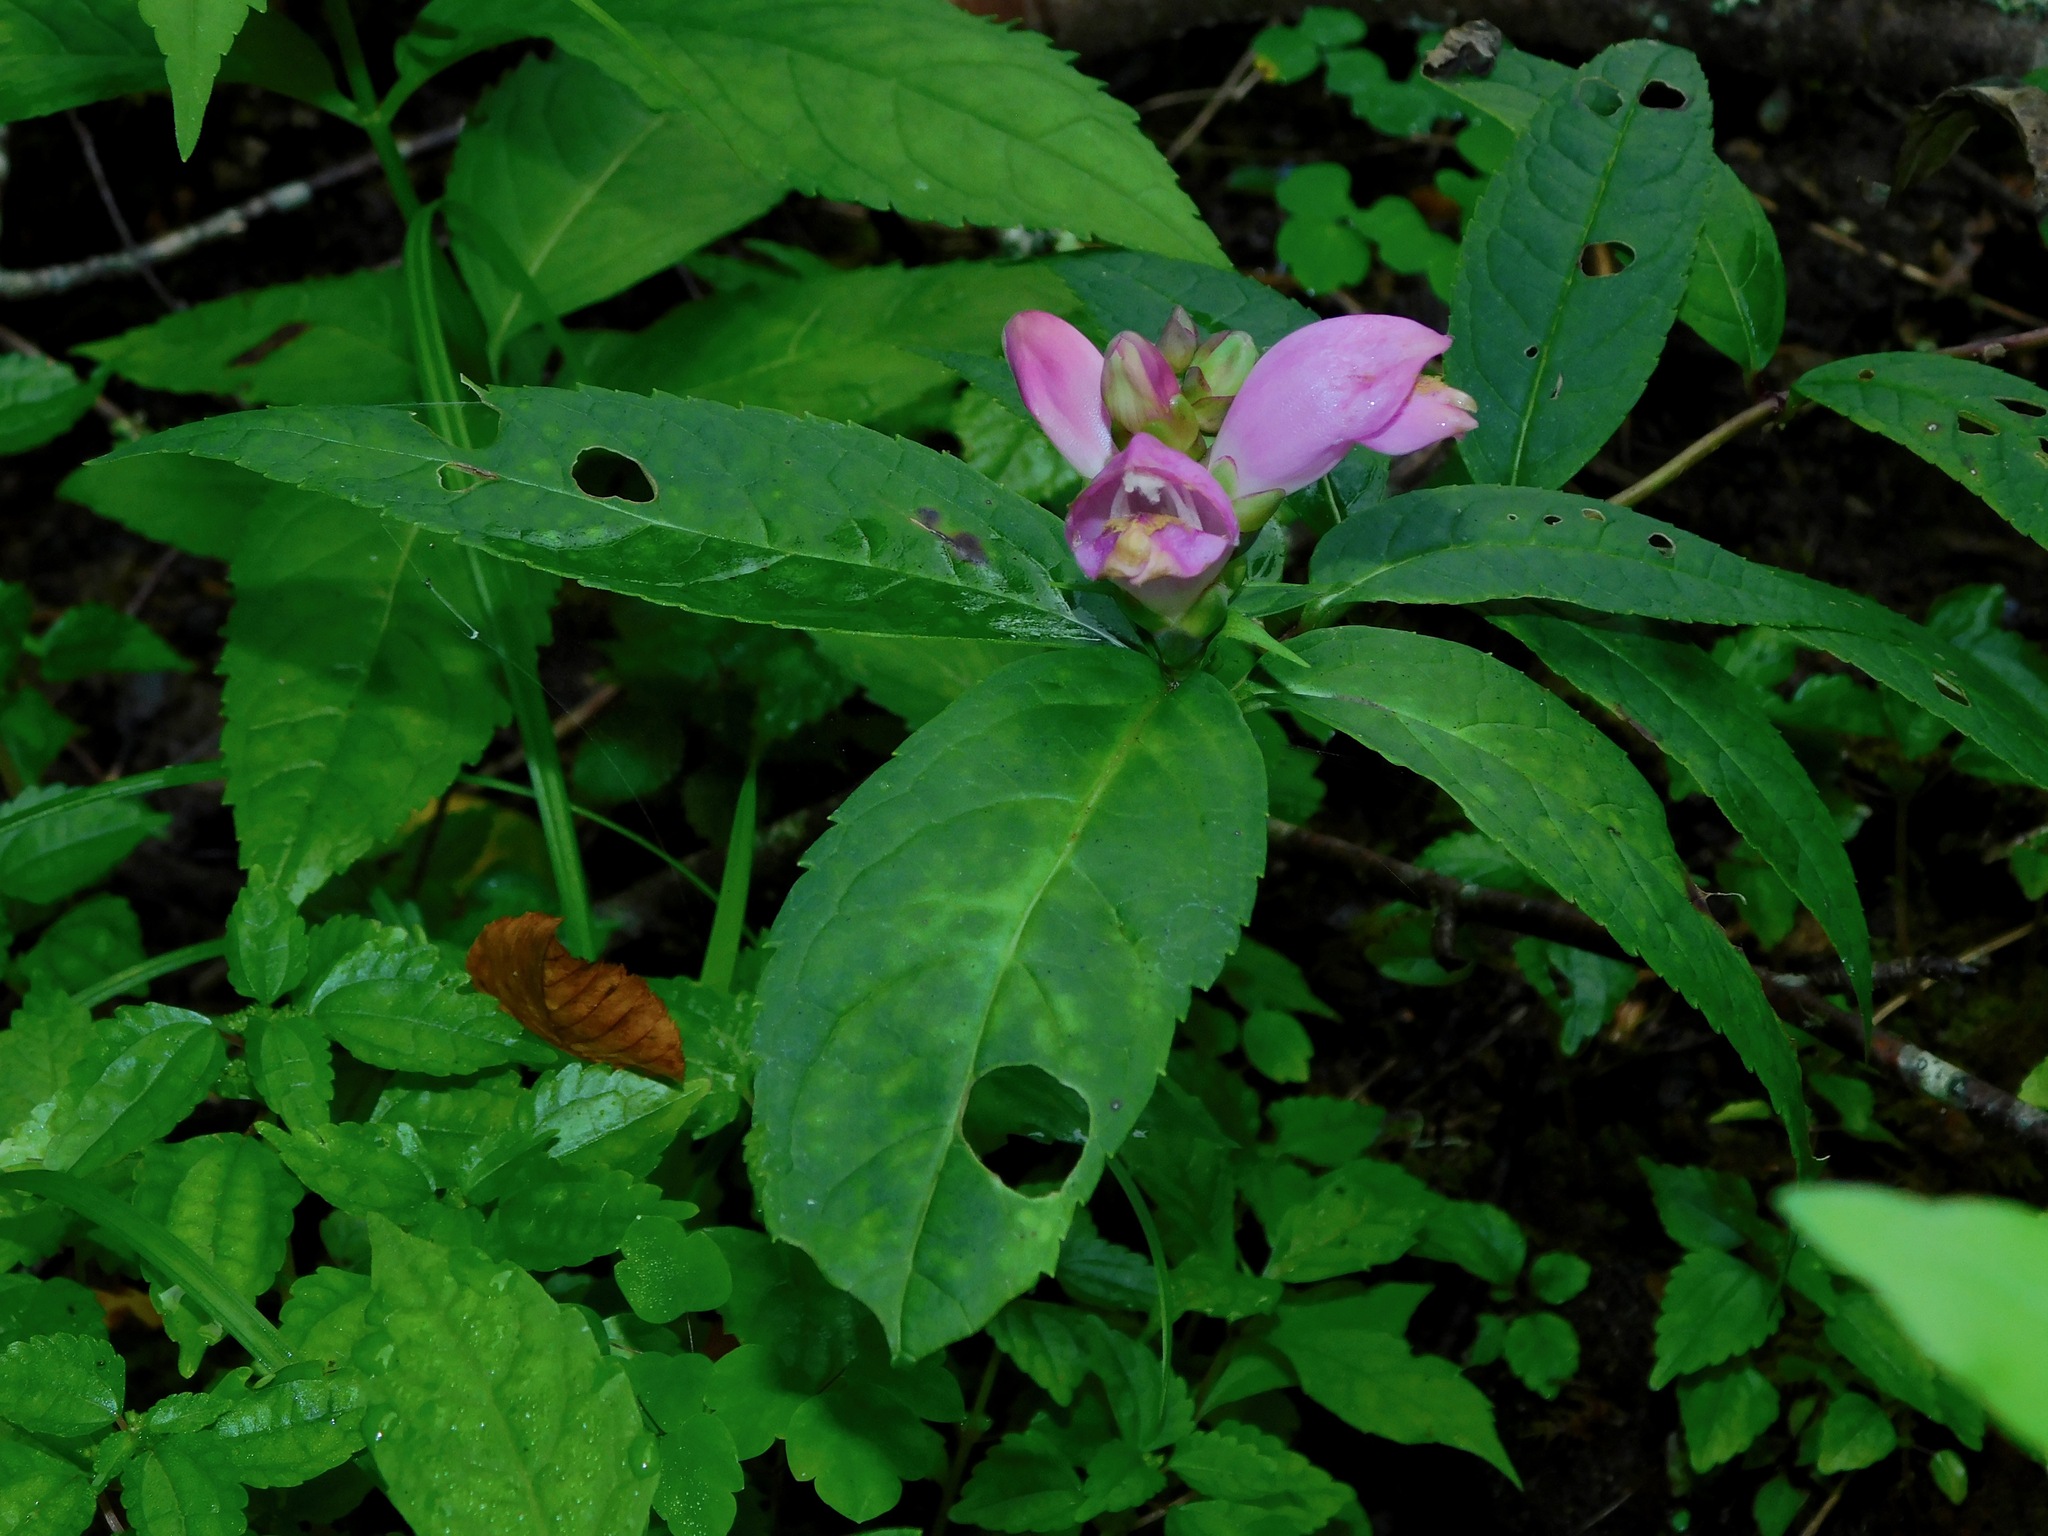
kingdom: Plantae
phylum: Tracheophyta
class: Magnoliopsida
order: Lamiales
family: Plantaginaceae
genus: Chelone
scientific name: Chelone lyonii
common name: Pink turtlehead
